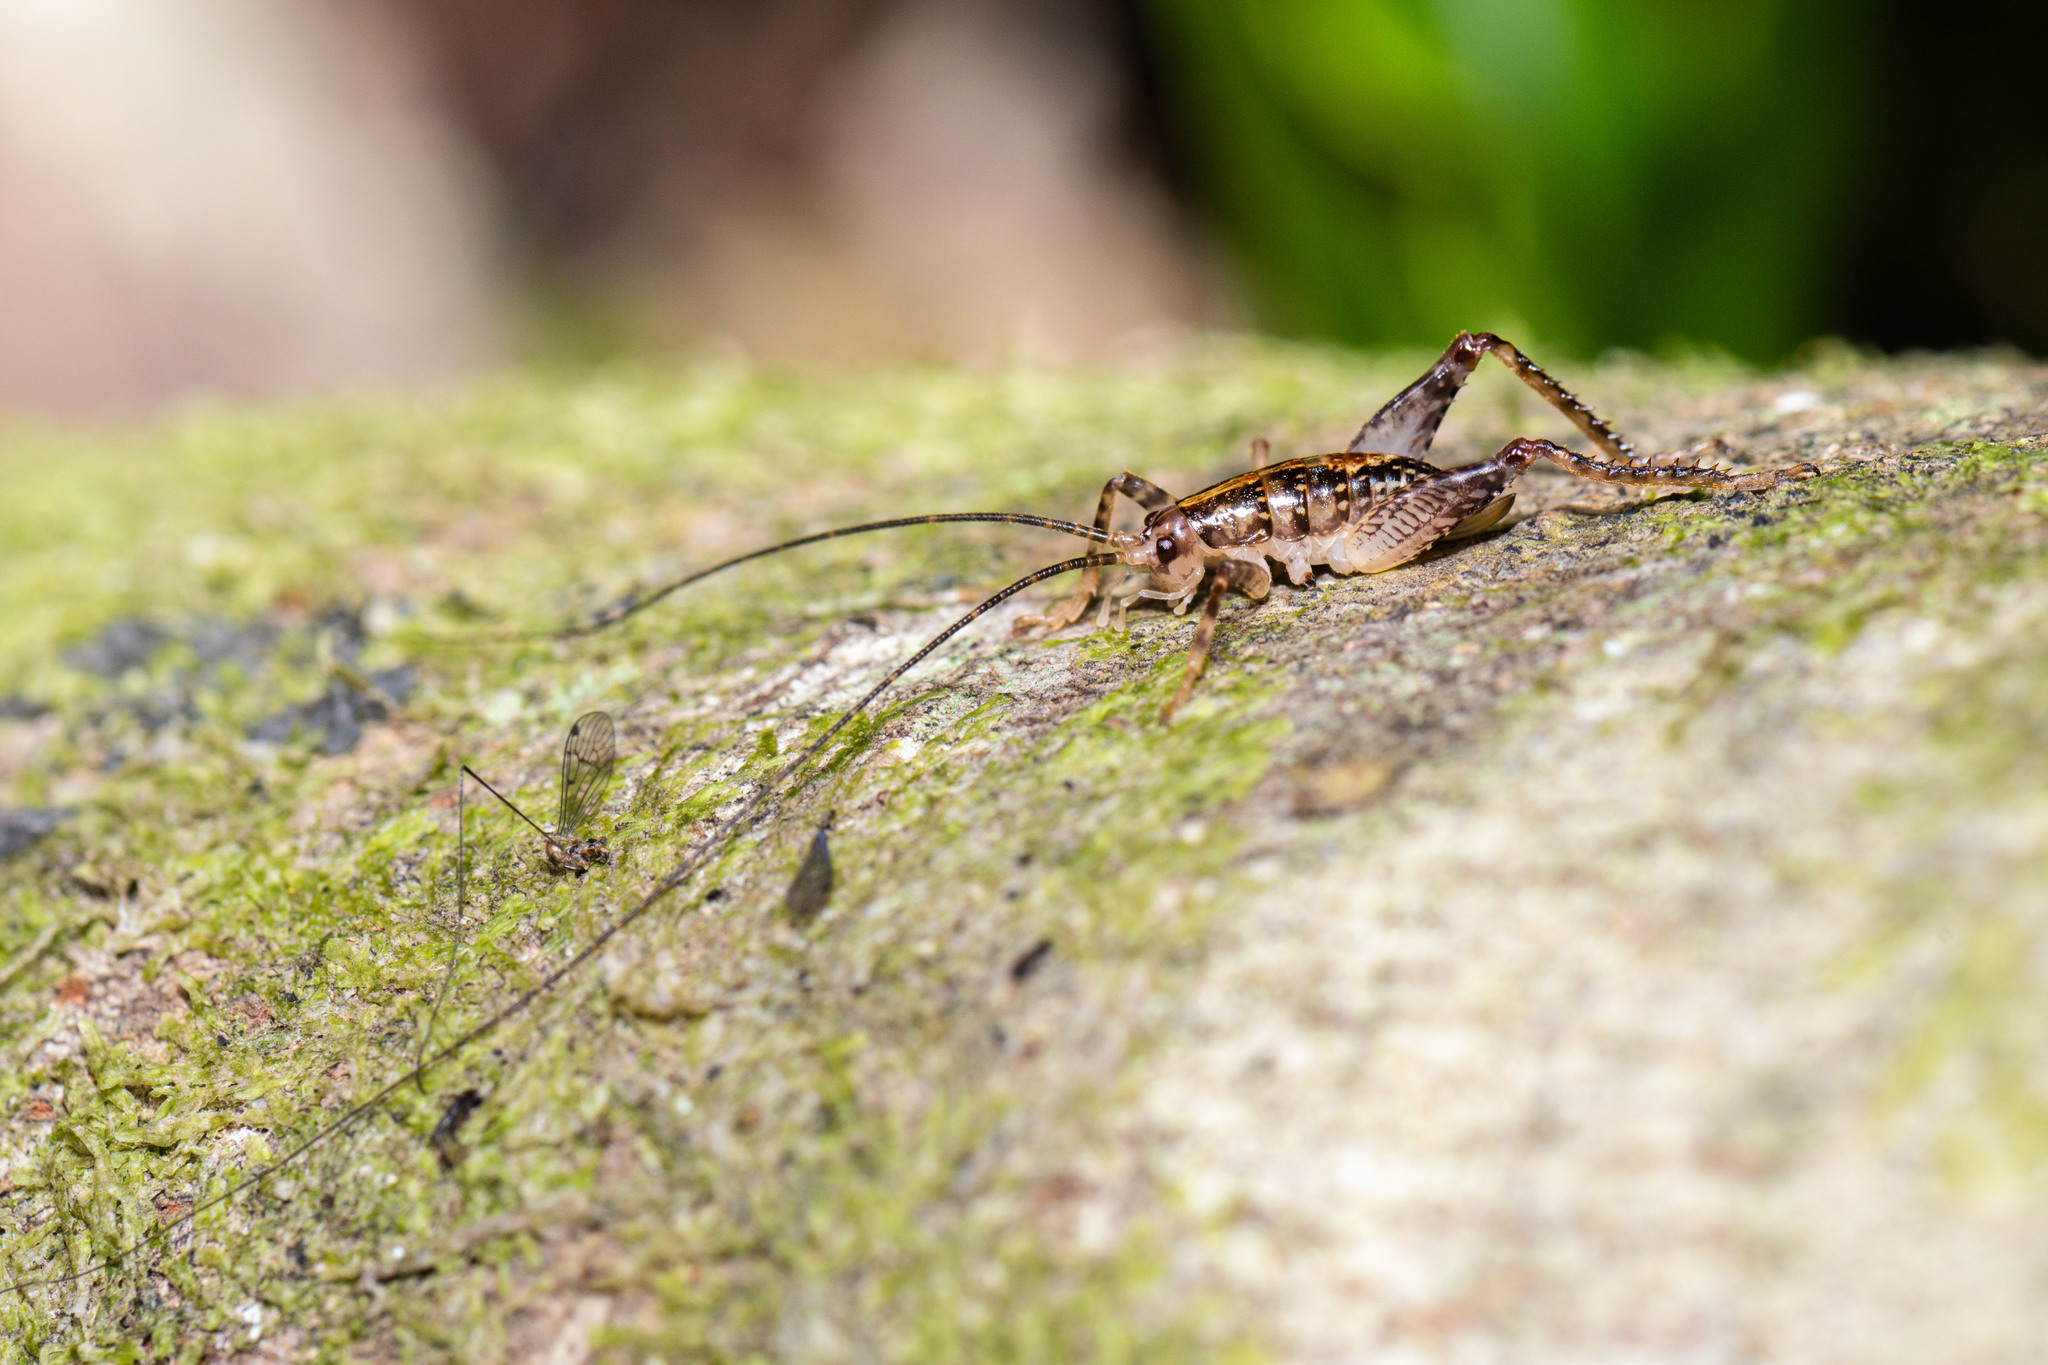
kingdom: Animalia
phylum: Arthropoda
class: Insecta
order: Orthoptera
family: Rhaphidophoridae
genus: Talitropsis
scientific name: Talitropsis sedilloti
